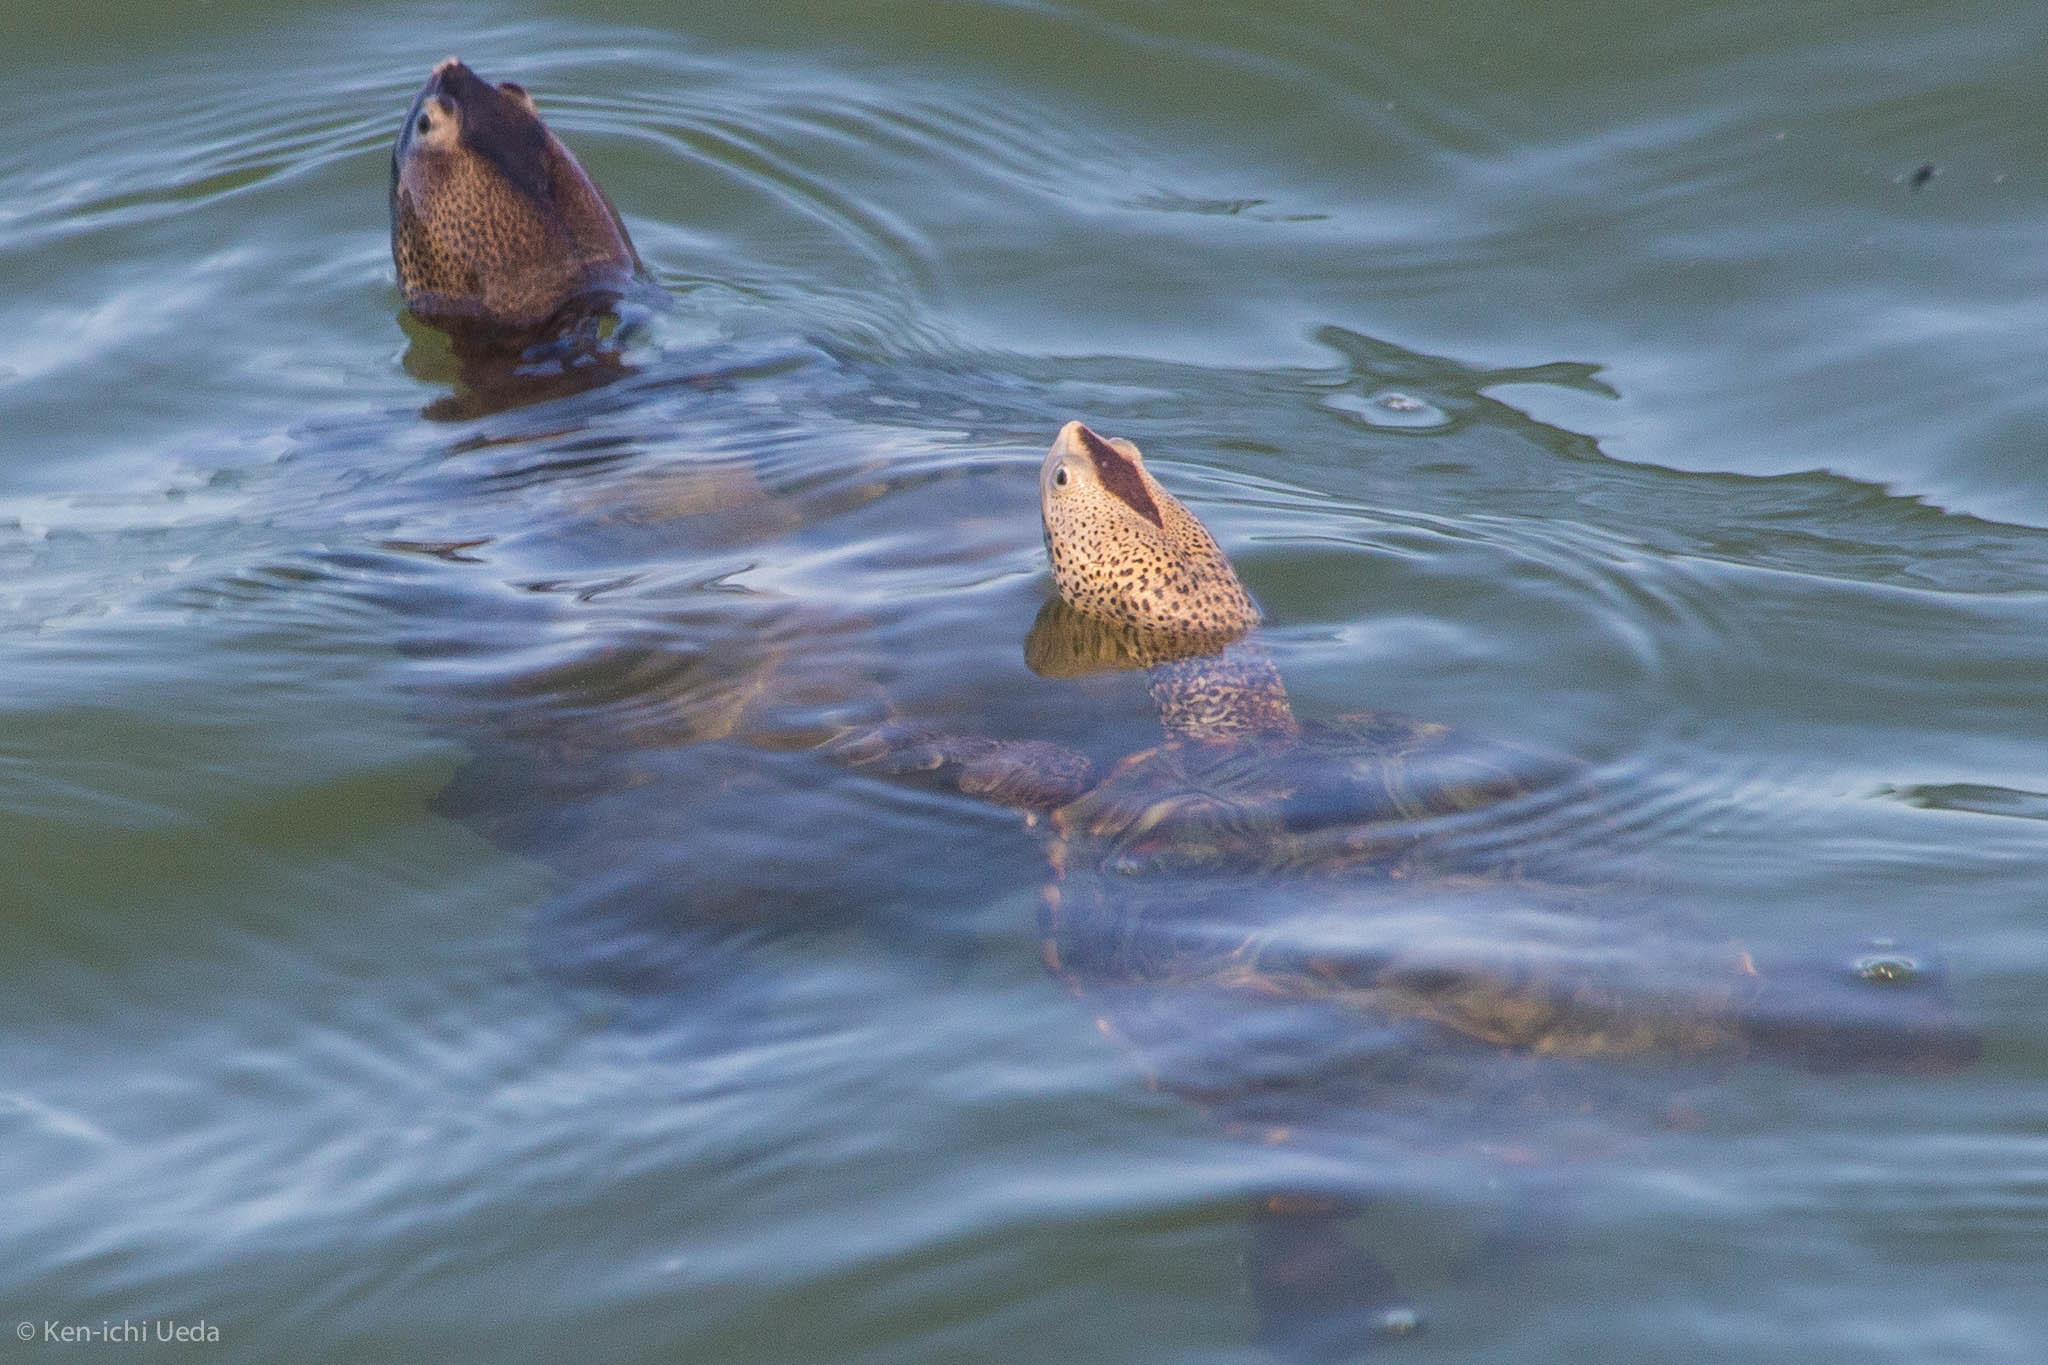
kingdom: Animalia
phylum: Chordata
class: Testudines
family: Emydidae
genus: Malaclemys
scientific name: Malaclemys terrapin
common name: Diamondback terrapin
